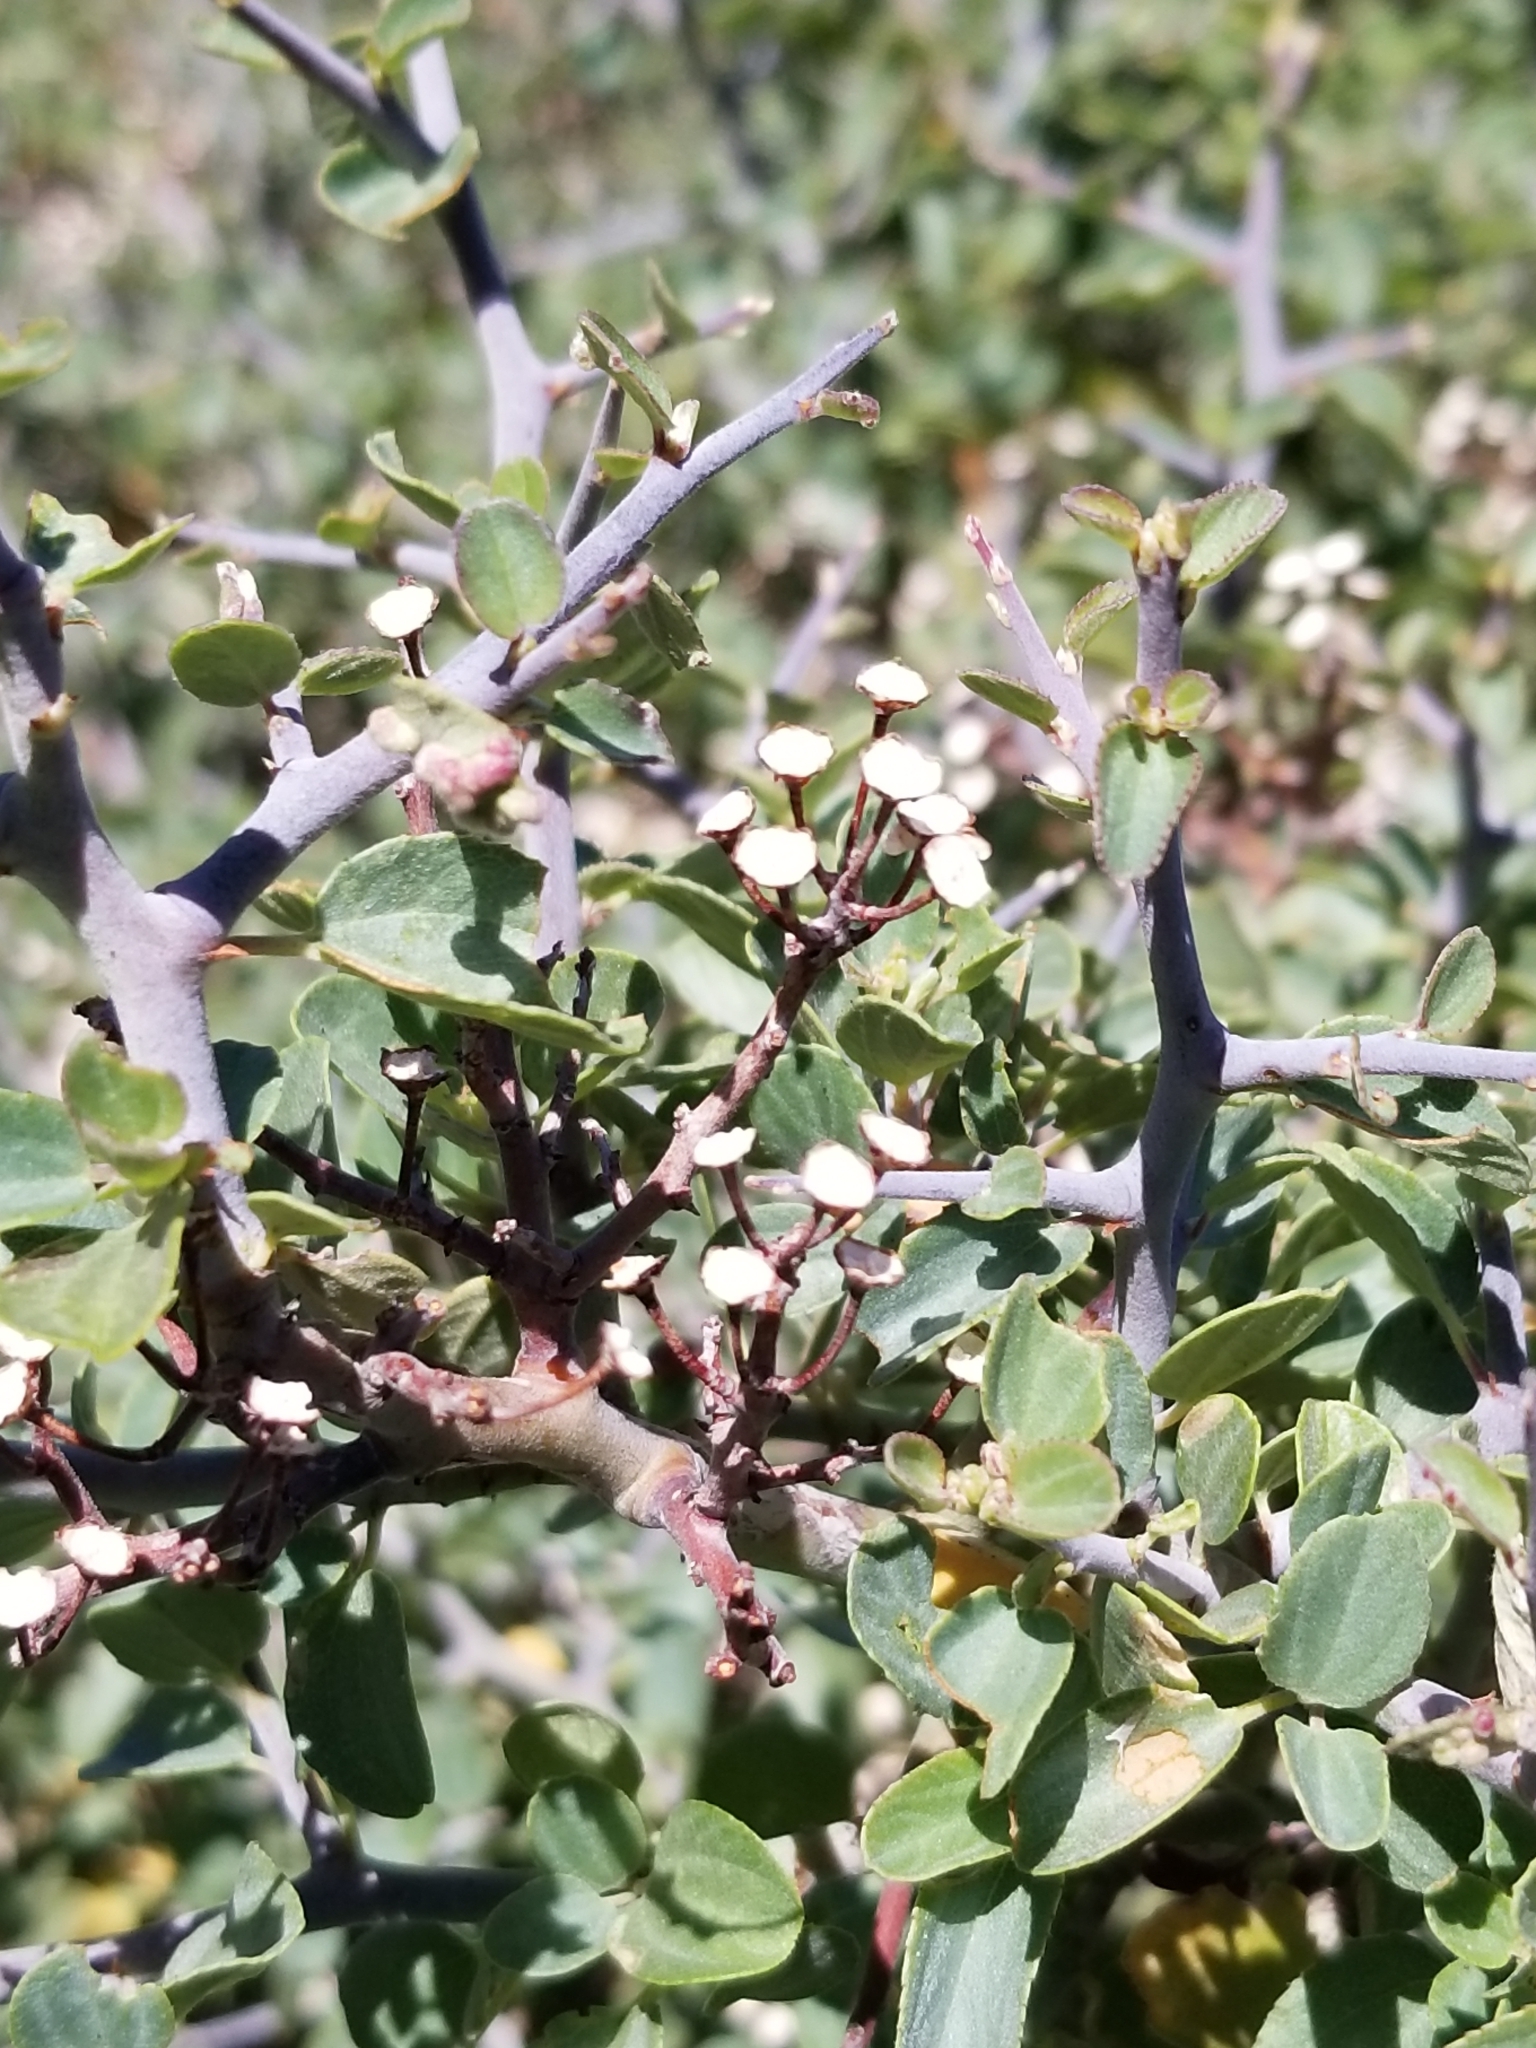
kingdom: Plantae
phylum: Tracheophyta
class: Magnoliopsida
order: Rosales
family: Rhamnaceae
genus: Ceanothus
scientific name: Ceanothus cordulatus
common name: Mountain whitethorn
